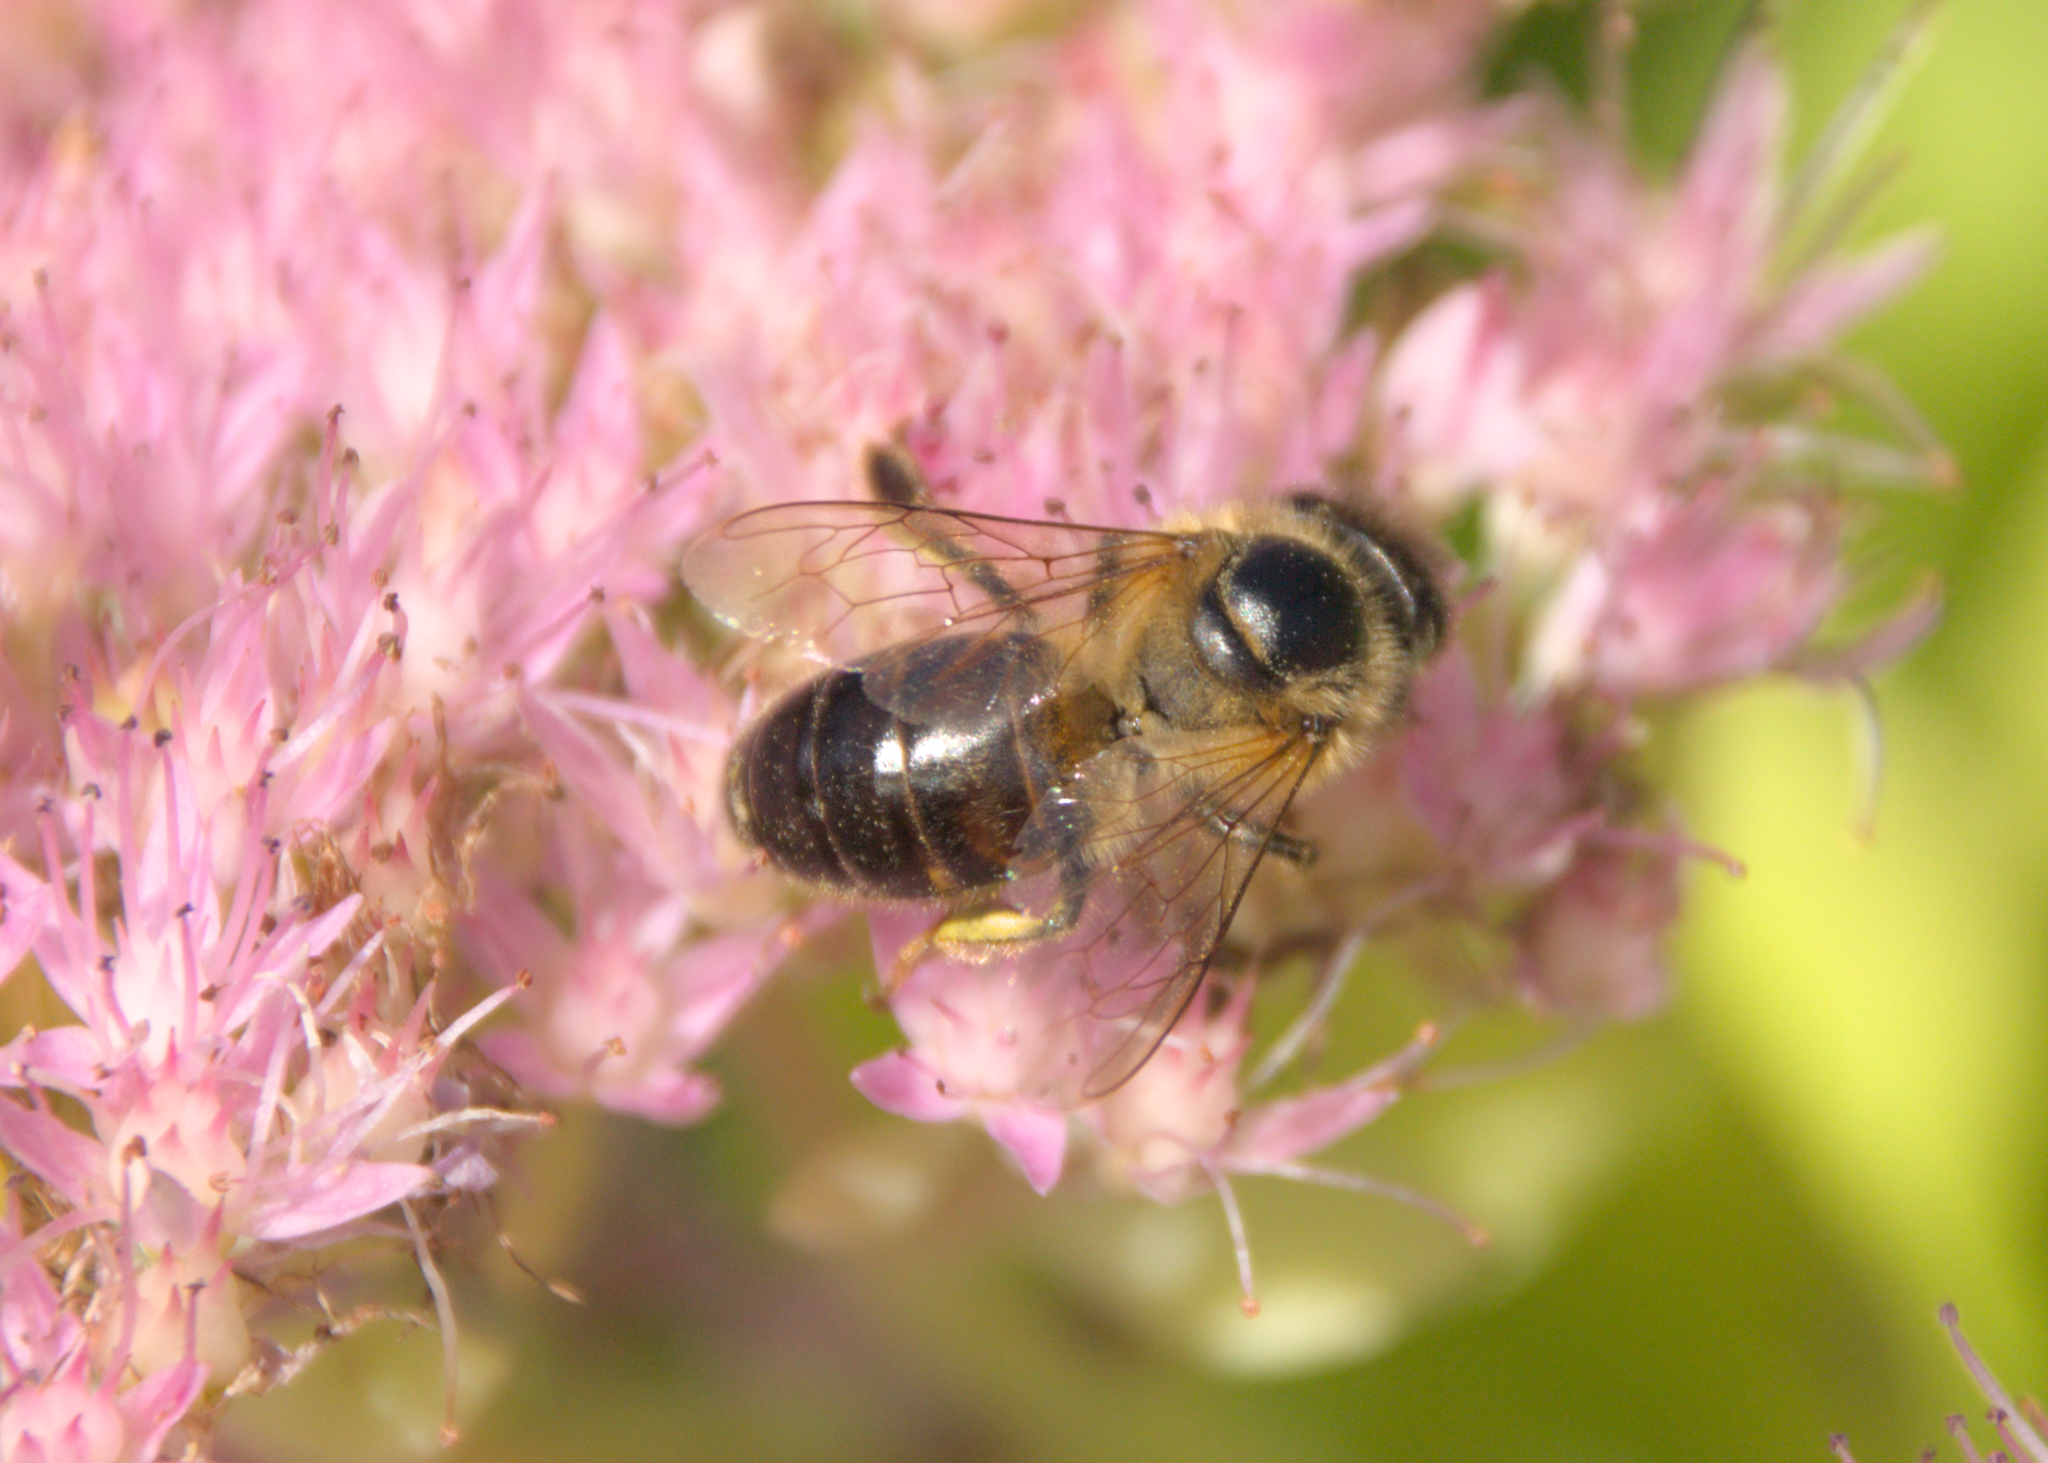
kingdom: Animalia
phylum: Arthropoda
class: Insecta
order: Hymenoptera
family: Apidae
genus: Apis
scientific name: Apis mellifera
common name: Honey bee
